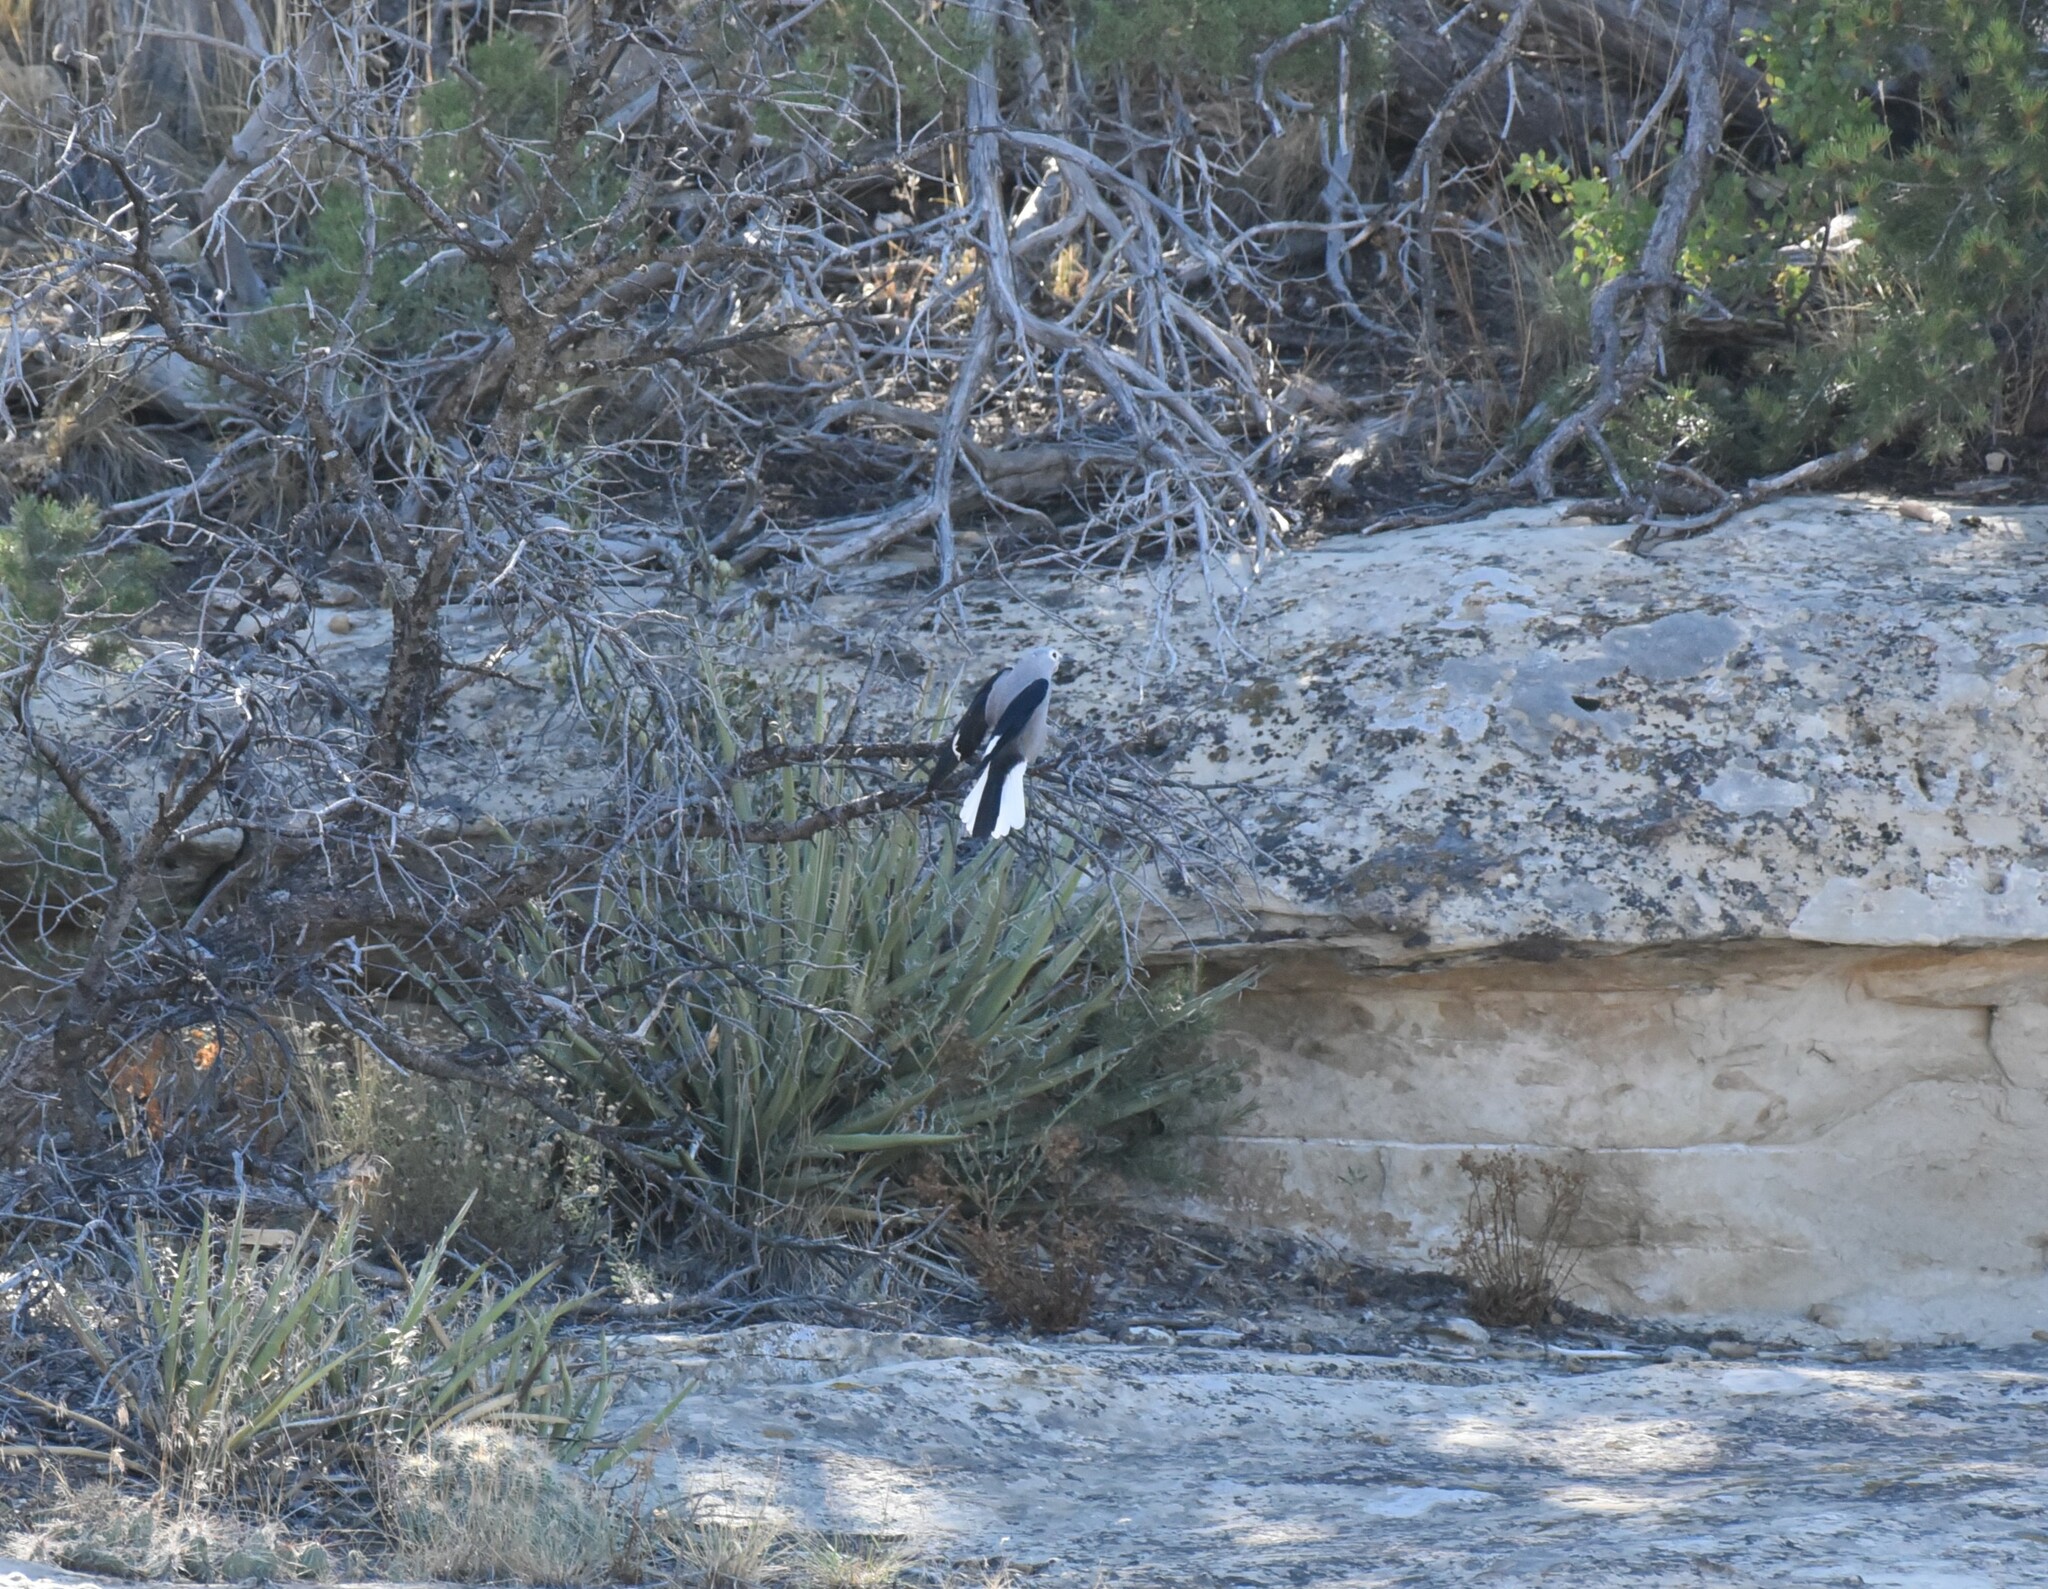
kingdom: Animalia
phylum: Chordata
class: Aves
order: Passeriformes
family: Corvidae
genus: Nucifraga
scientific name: Nucifraga columbiana
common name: Clark's nutcracker
